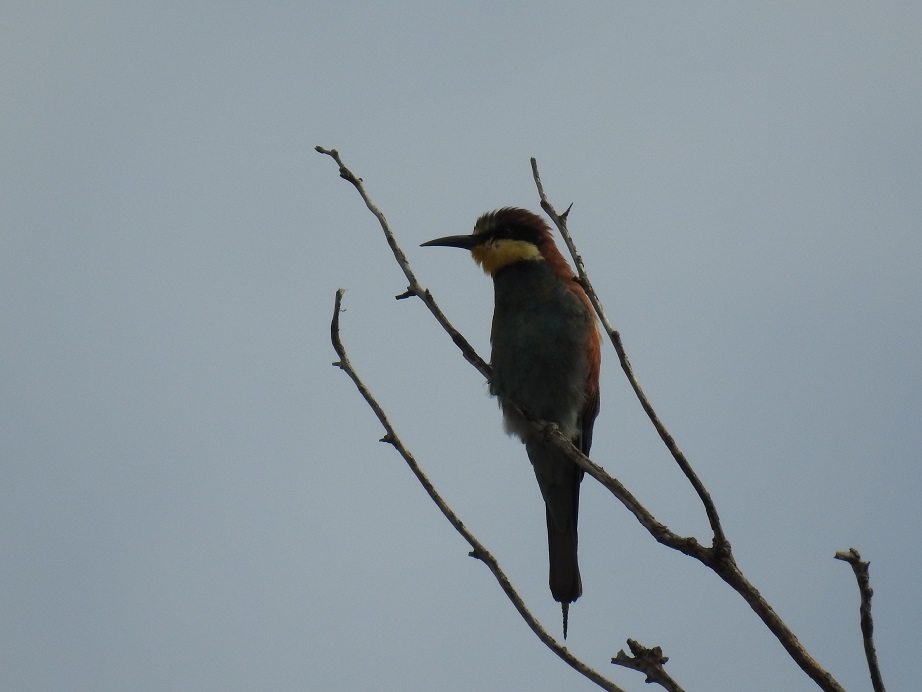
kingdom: Animalia
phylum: Chordata
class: Aves
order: Coraciiformes
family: Meropidae
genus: Merops
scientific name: Merops apiaster
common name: European bee-eater
